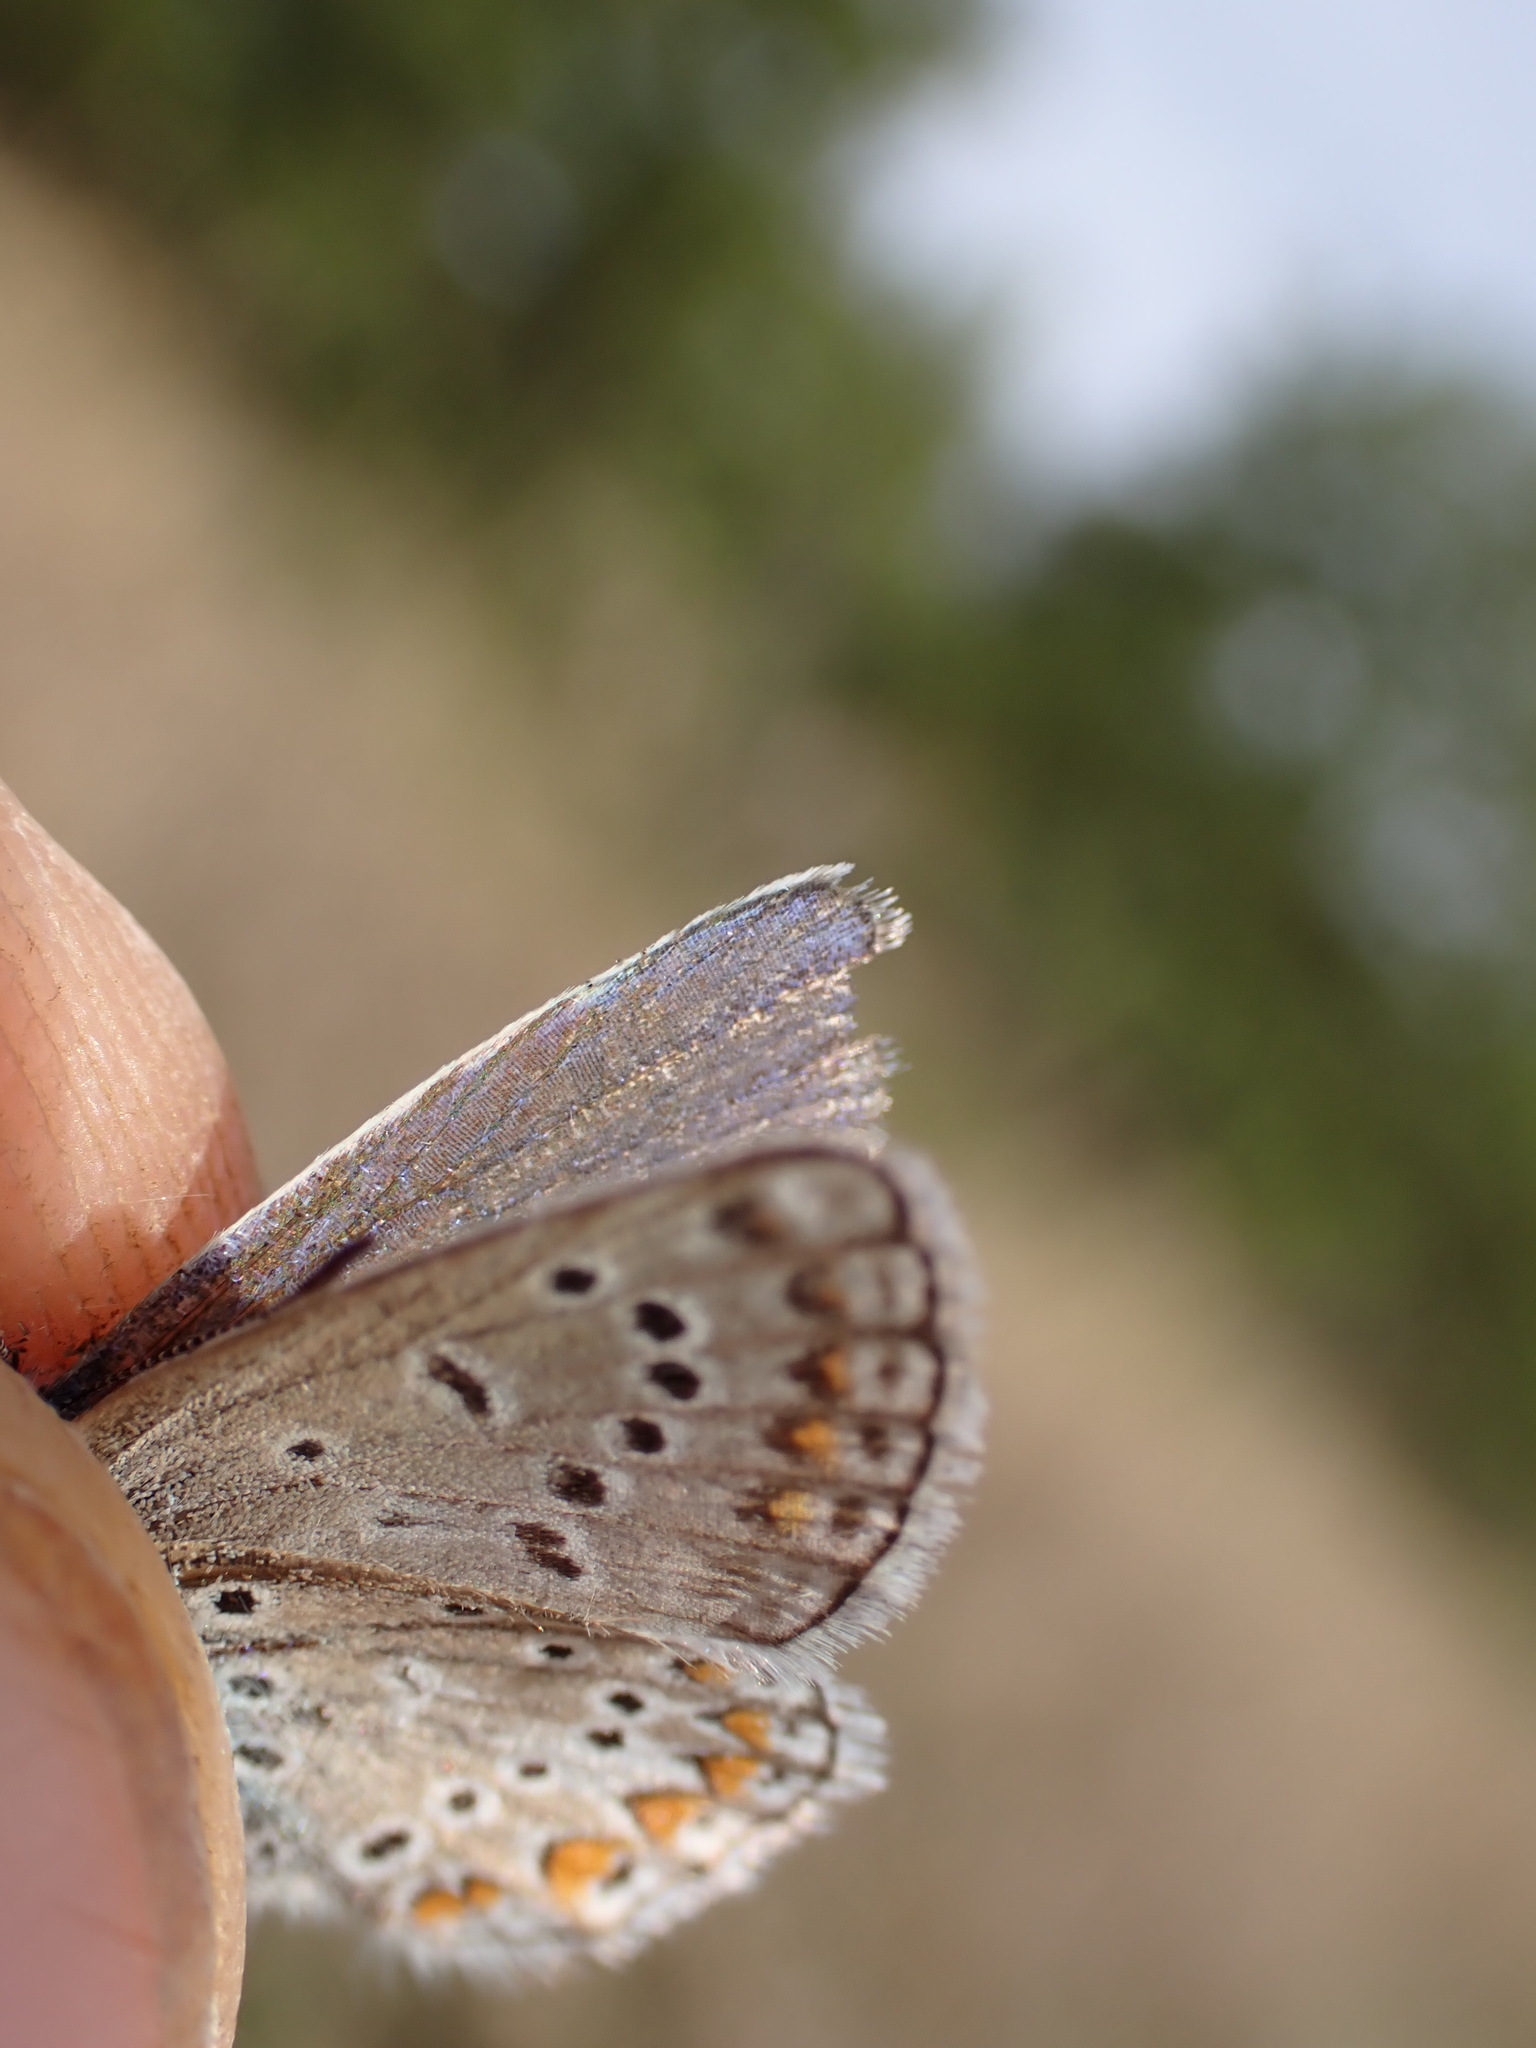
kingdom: Animalia
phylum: Arthropoda
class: Insecta
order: Lepidoptera
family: Lycaenidae
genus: Polyommatus
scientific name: Polyommatus icarus
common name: Common blue
